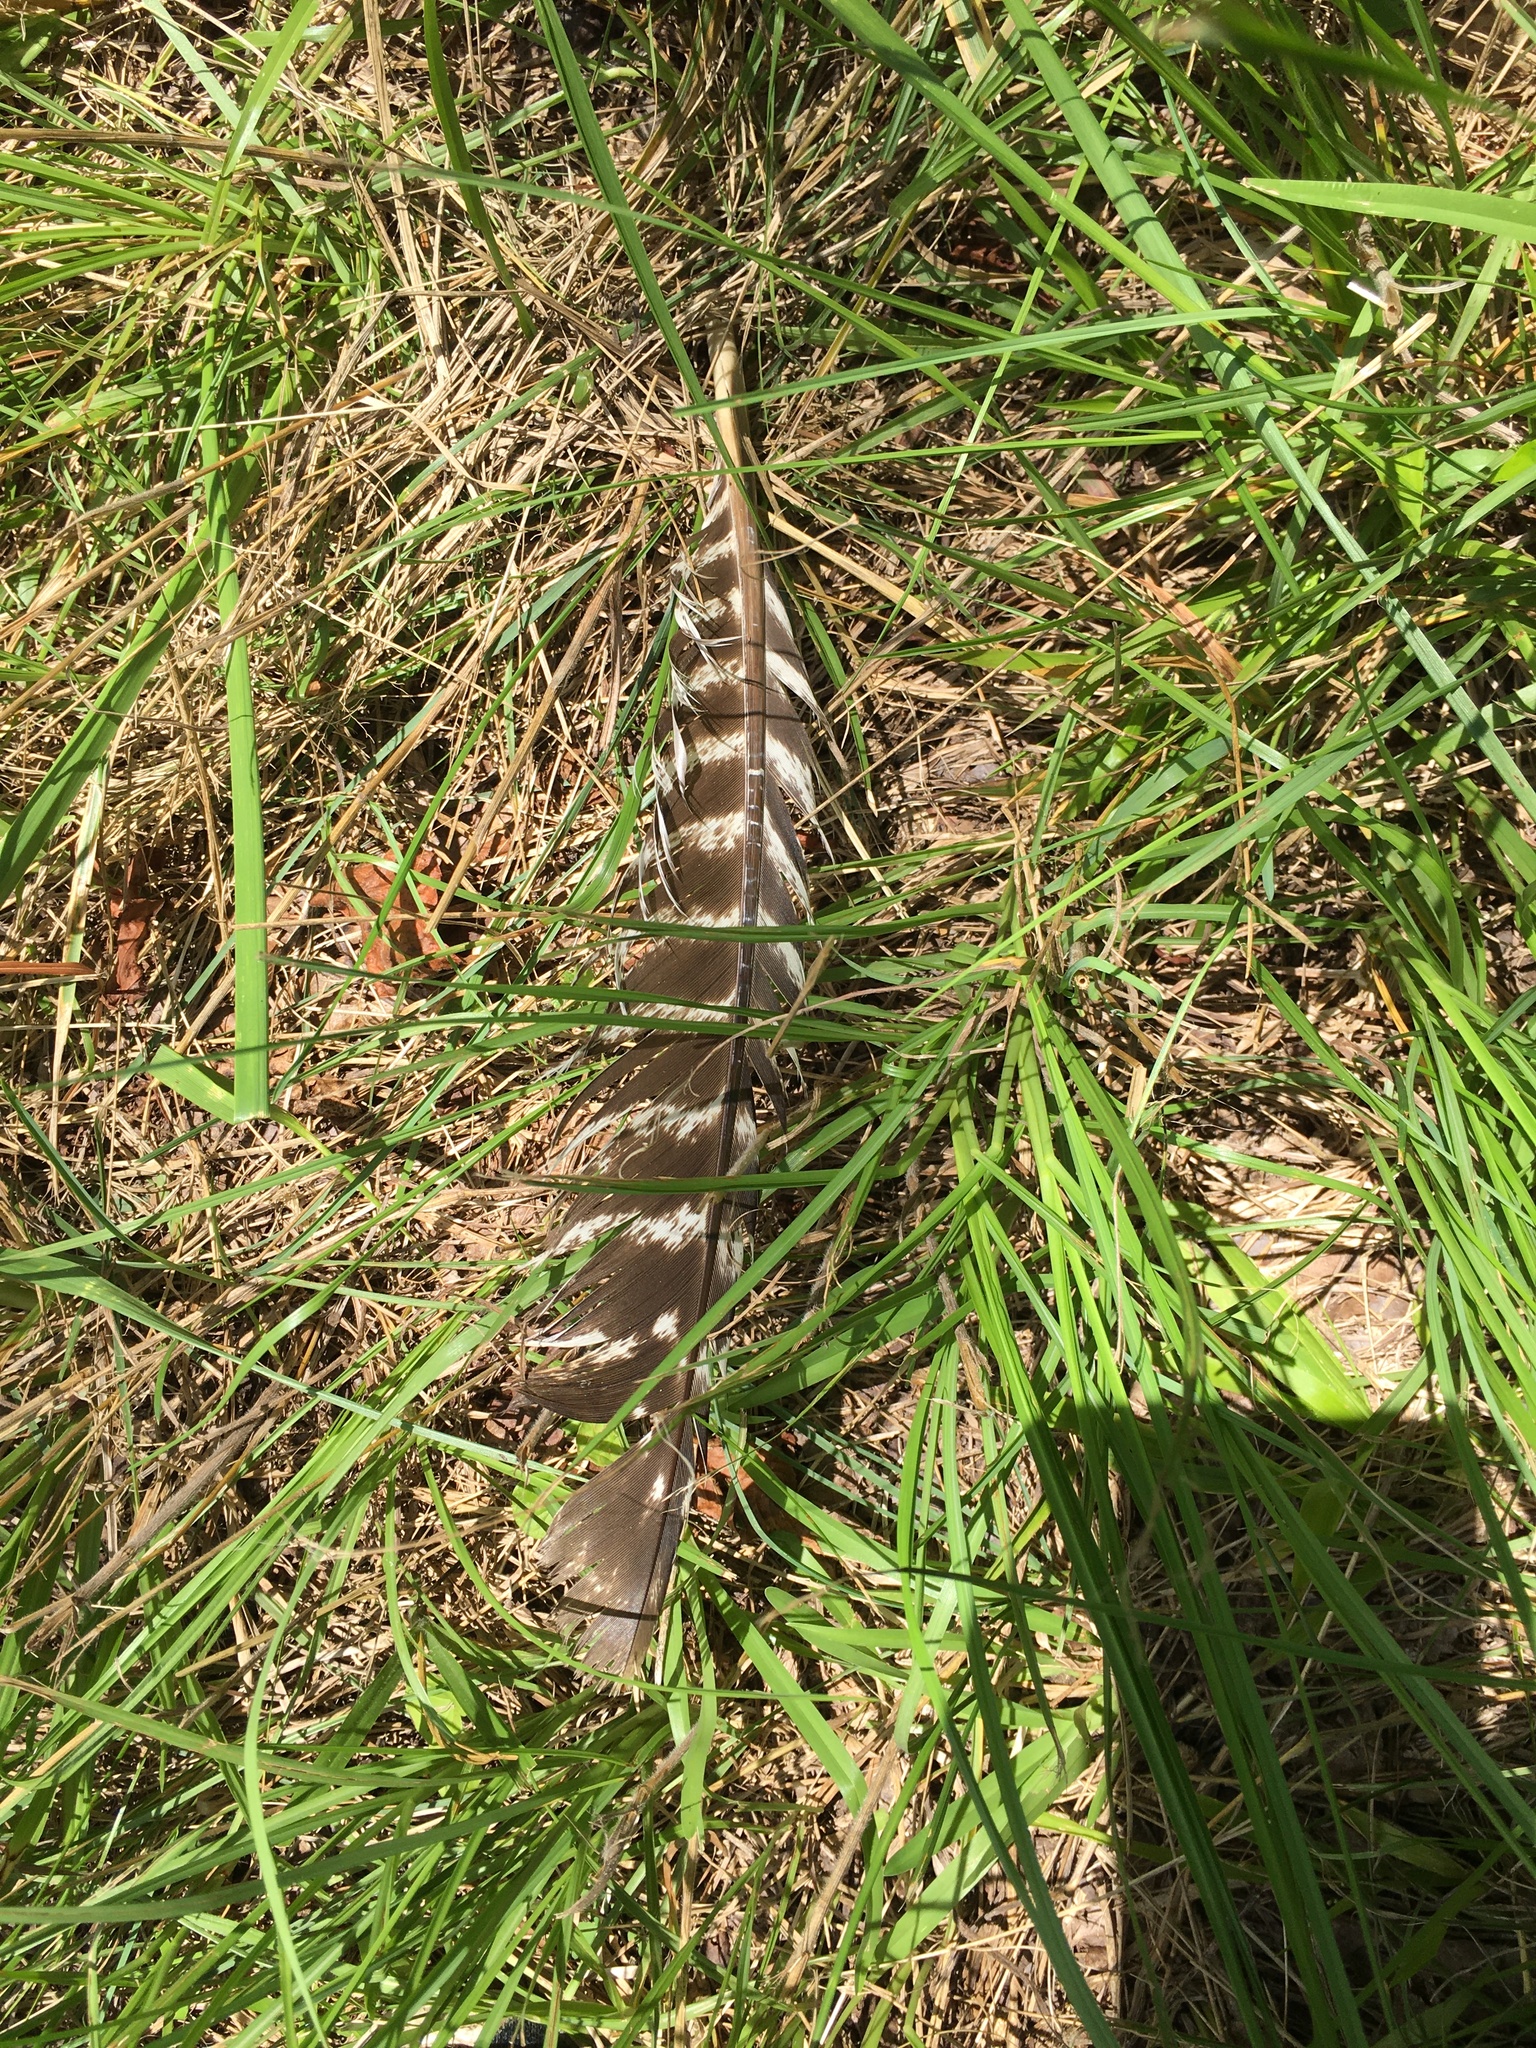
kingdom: Animalia
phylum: Chordata
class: Aves
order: Galliformes
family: Phasianidae
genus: Meleagris
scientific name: Meleagris gallopavo
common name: Wild turkey
